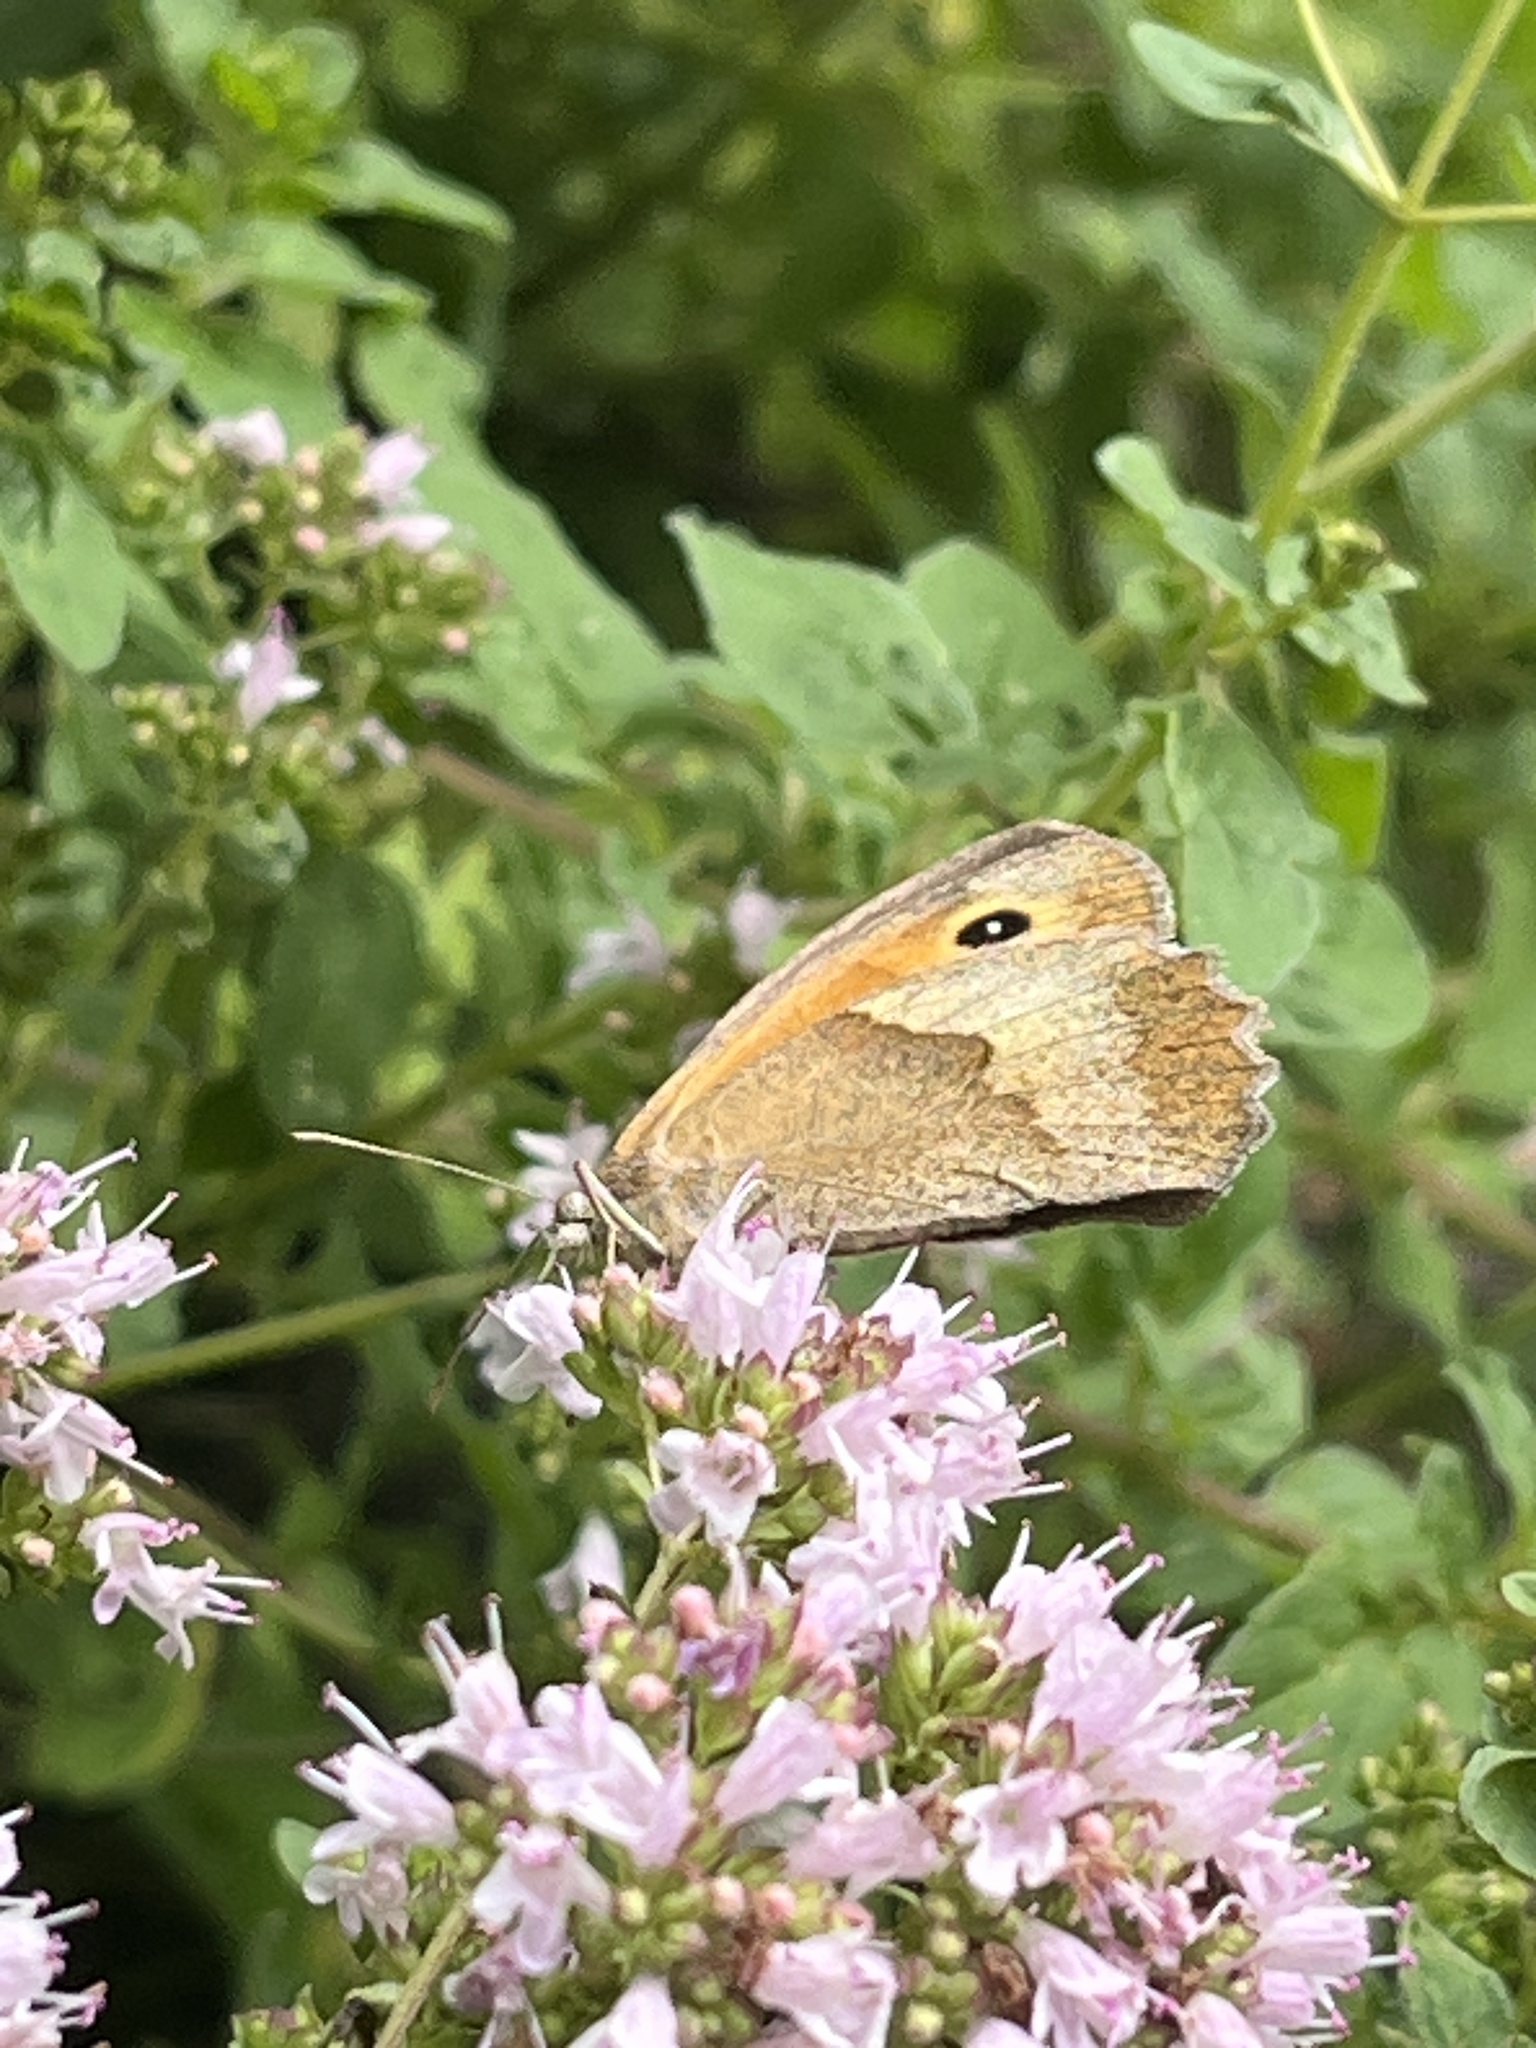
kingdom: Animalia
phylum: Arthropoda
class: Insecta
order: Lepidoptera
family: Nymphalidae
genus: Maniola
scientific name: Maniola jurtina
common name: Meadow brown
